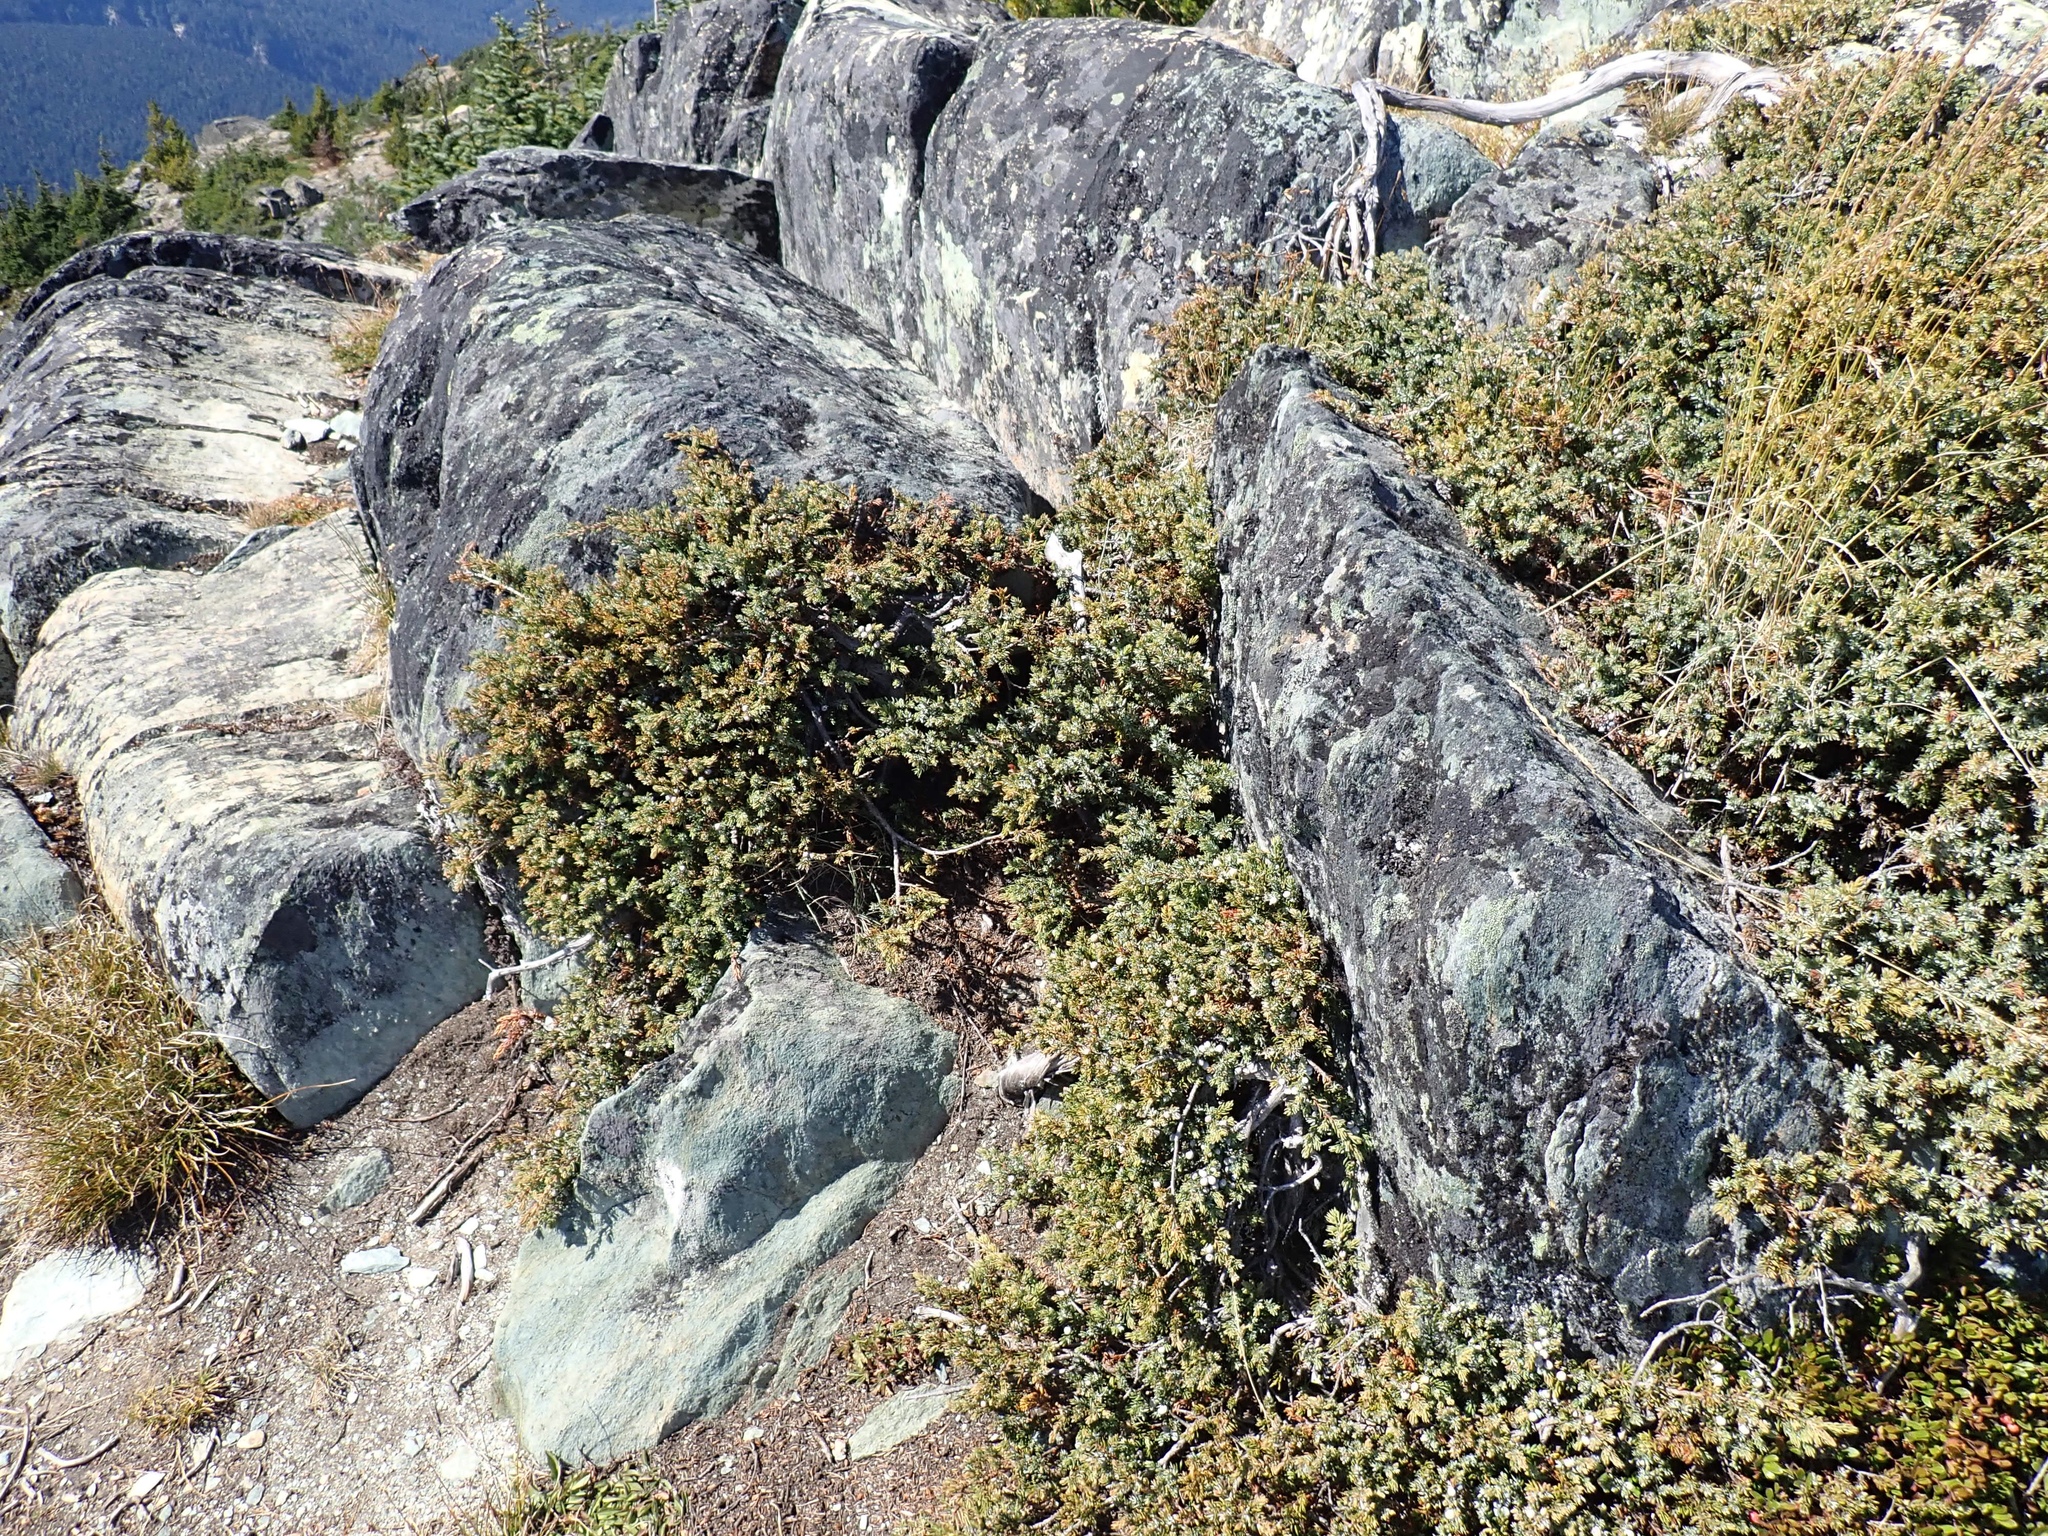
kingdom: Plantae
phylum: Tracheophyta
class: Pinopsida
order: Pinales
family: Cupressaceae
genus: Juniperus
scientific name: Juniperus communis
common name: Common juniper
